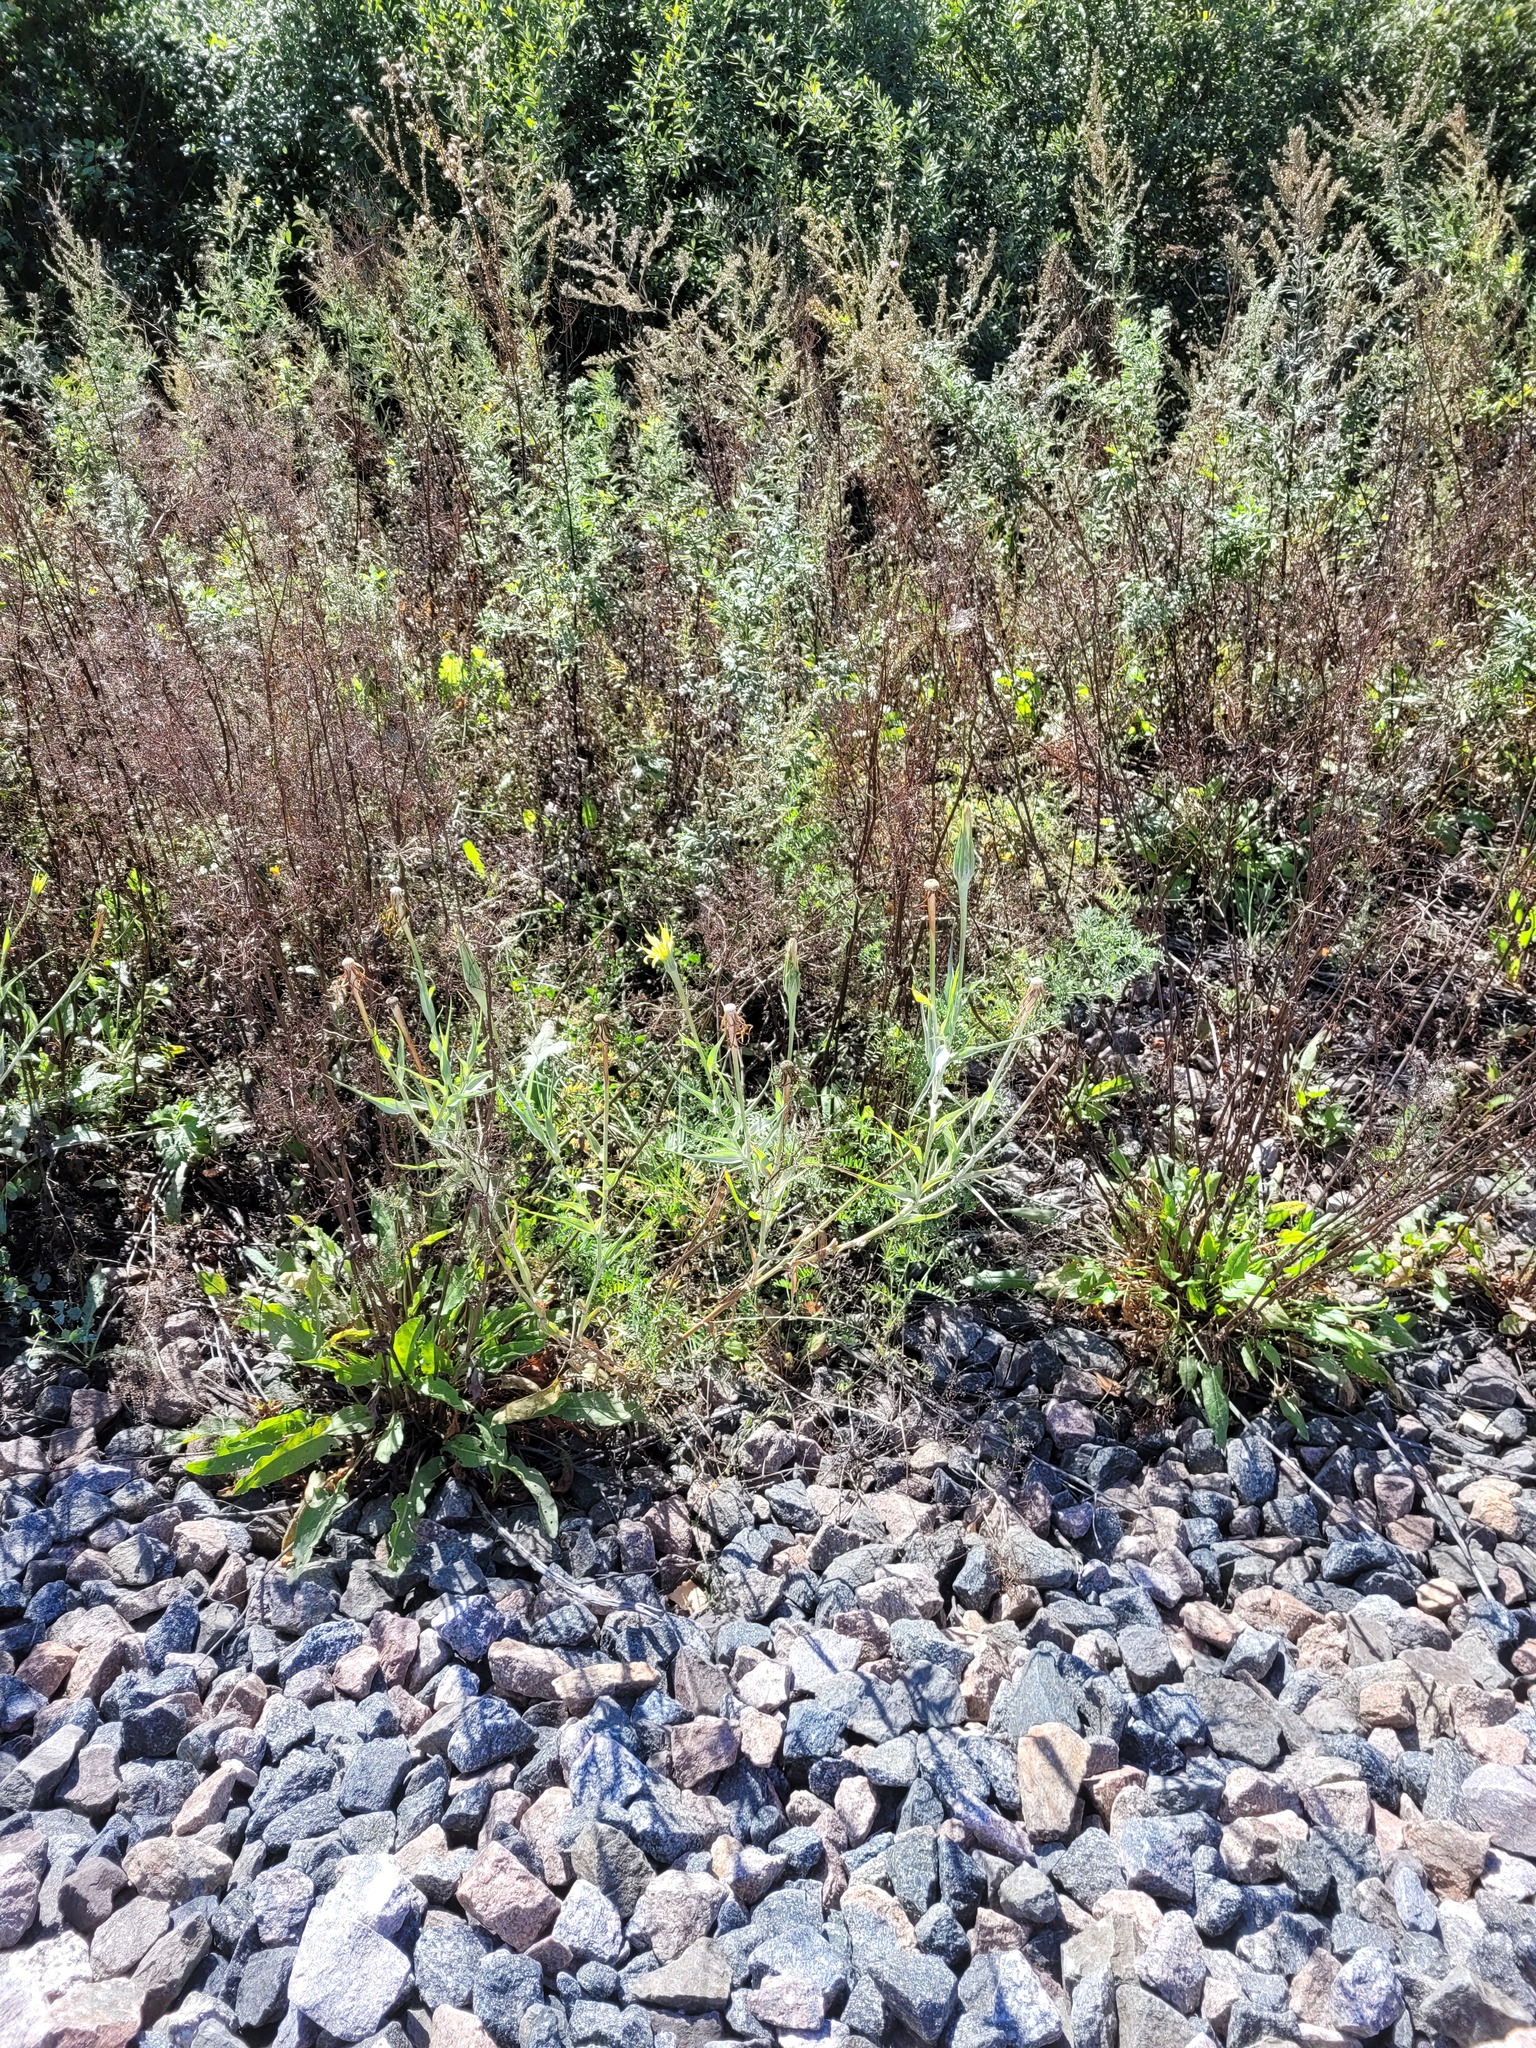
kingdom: Plantae
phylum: Tracheophyta
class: Magnoliopsida
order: Asterales
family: Asteraceae
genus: Tragopogon
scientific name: Tragopogon dubius
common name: Yellow salsify
